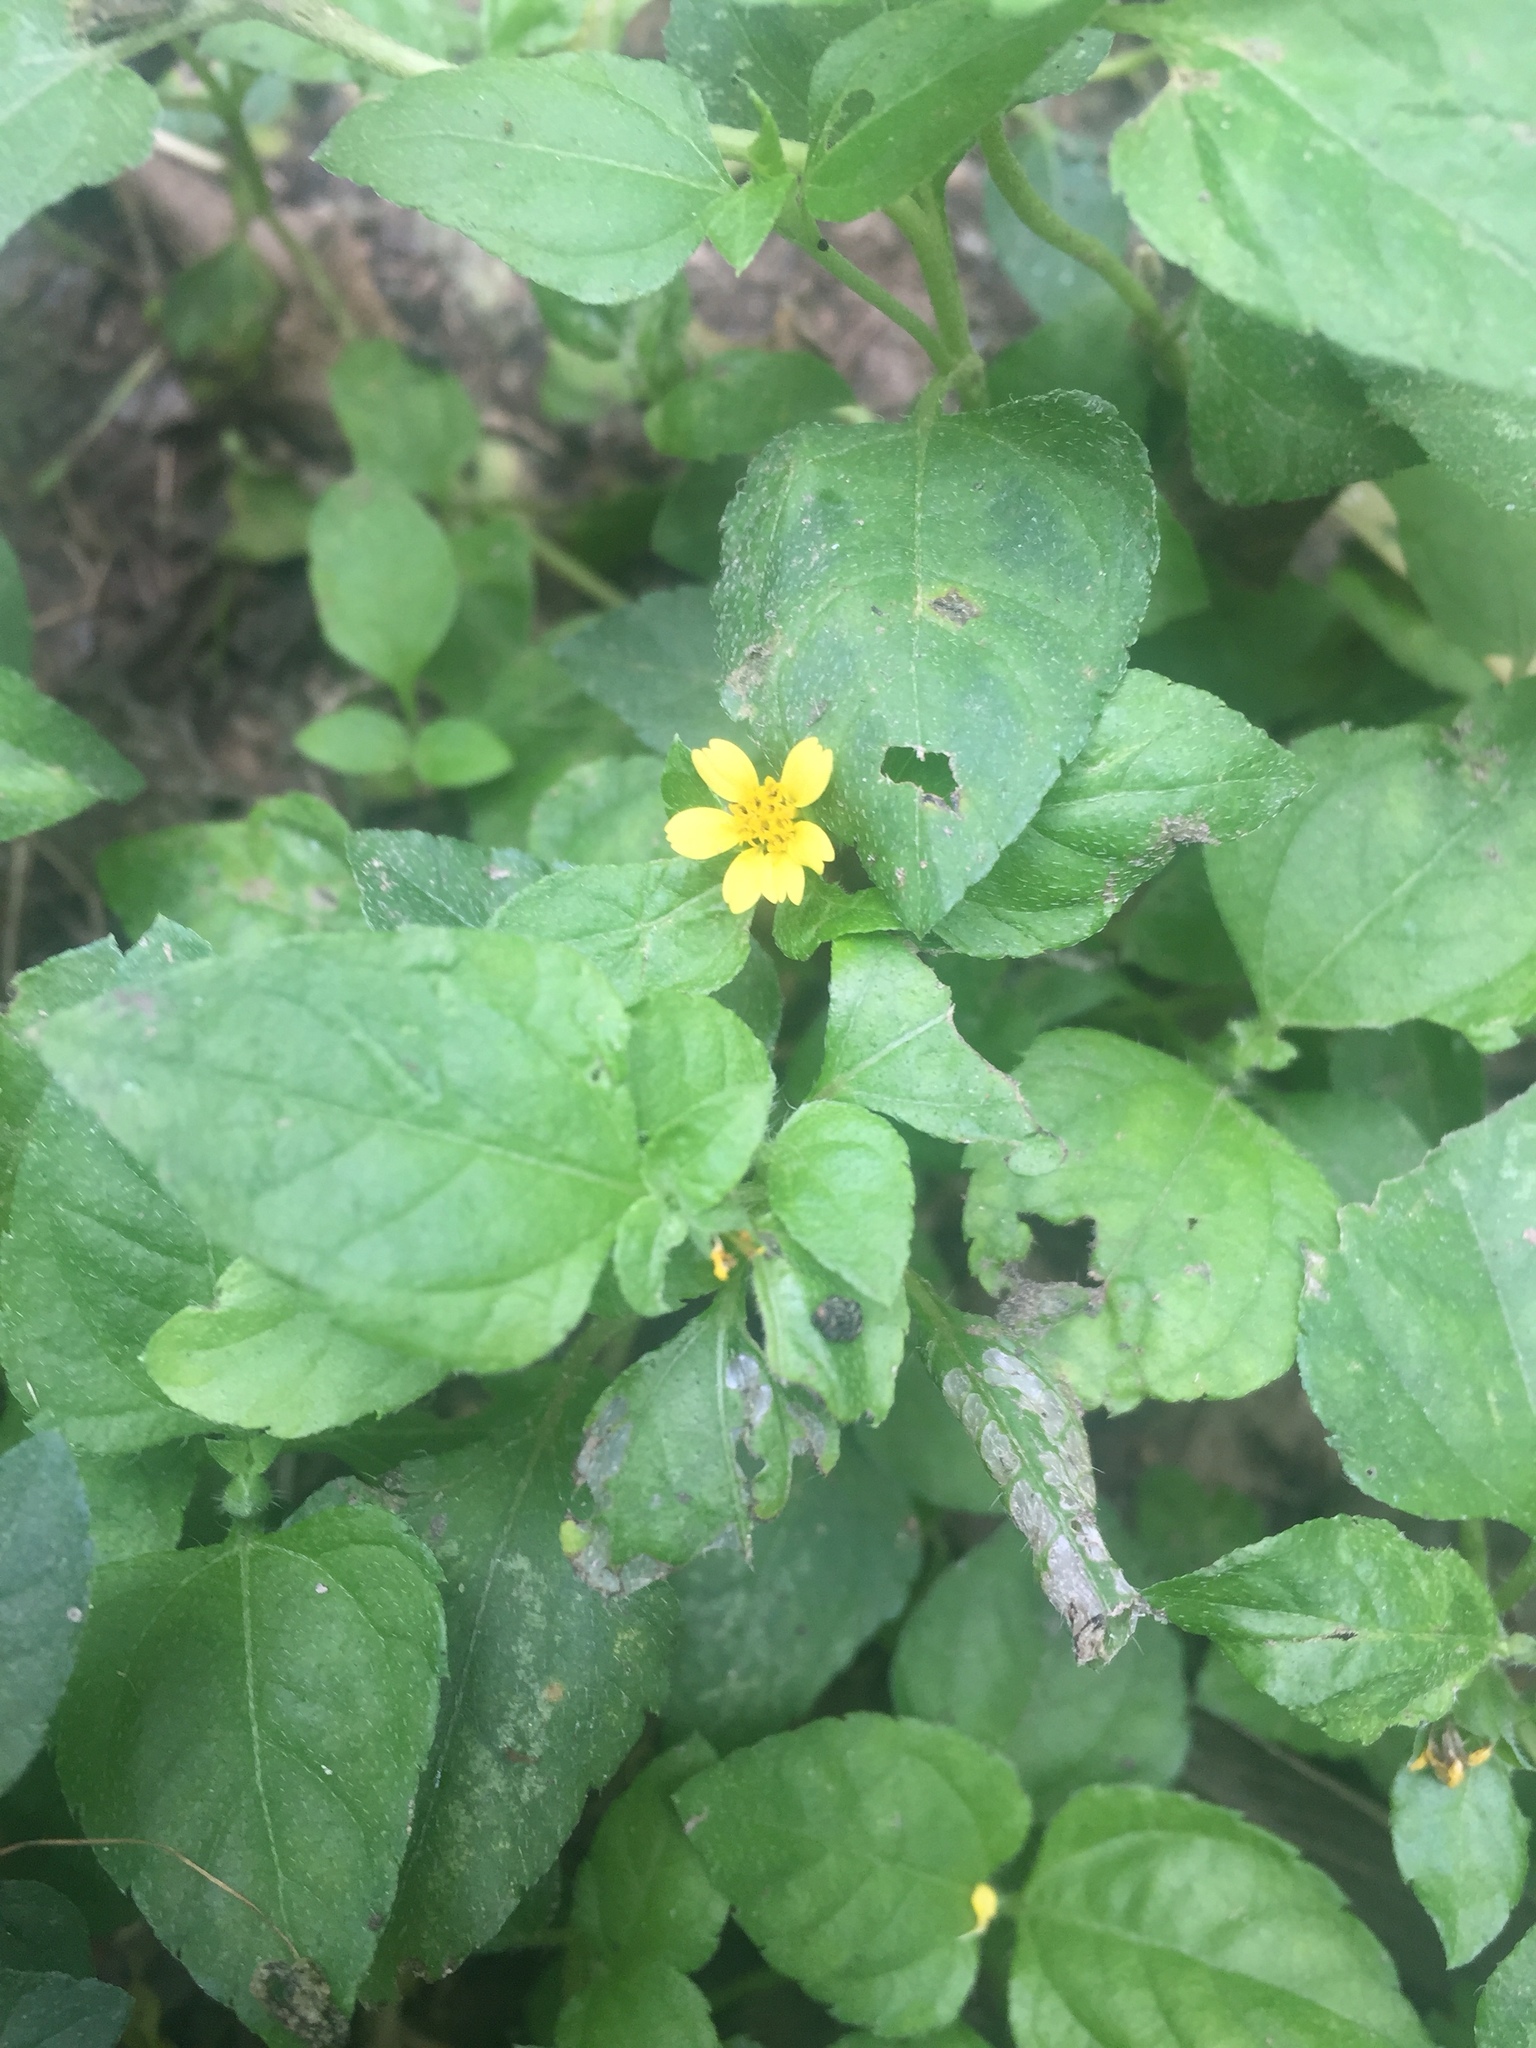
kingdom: Plantae
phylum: Tracheophyta
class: Magnoliopsida
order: Asterales
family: Asteraceae
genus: Calyptocarpus
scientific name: Calyptocarpus vialis
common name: Straggler daisy
